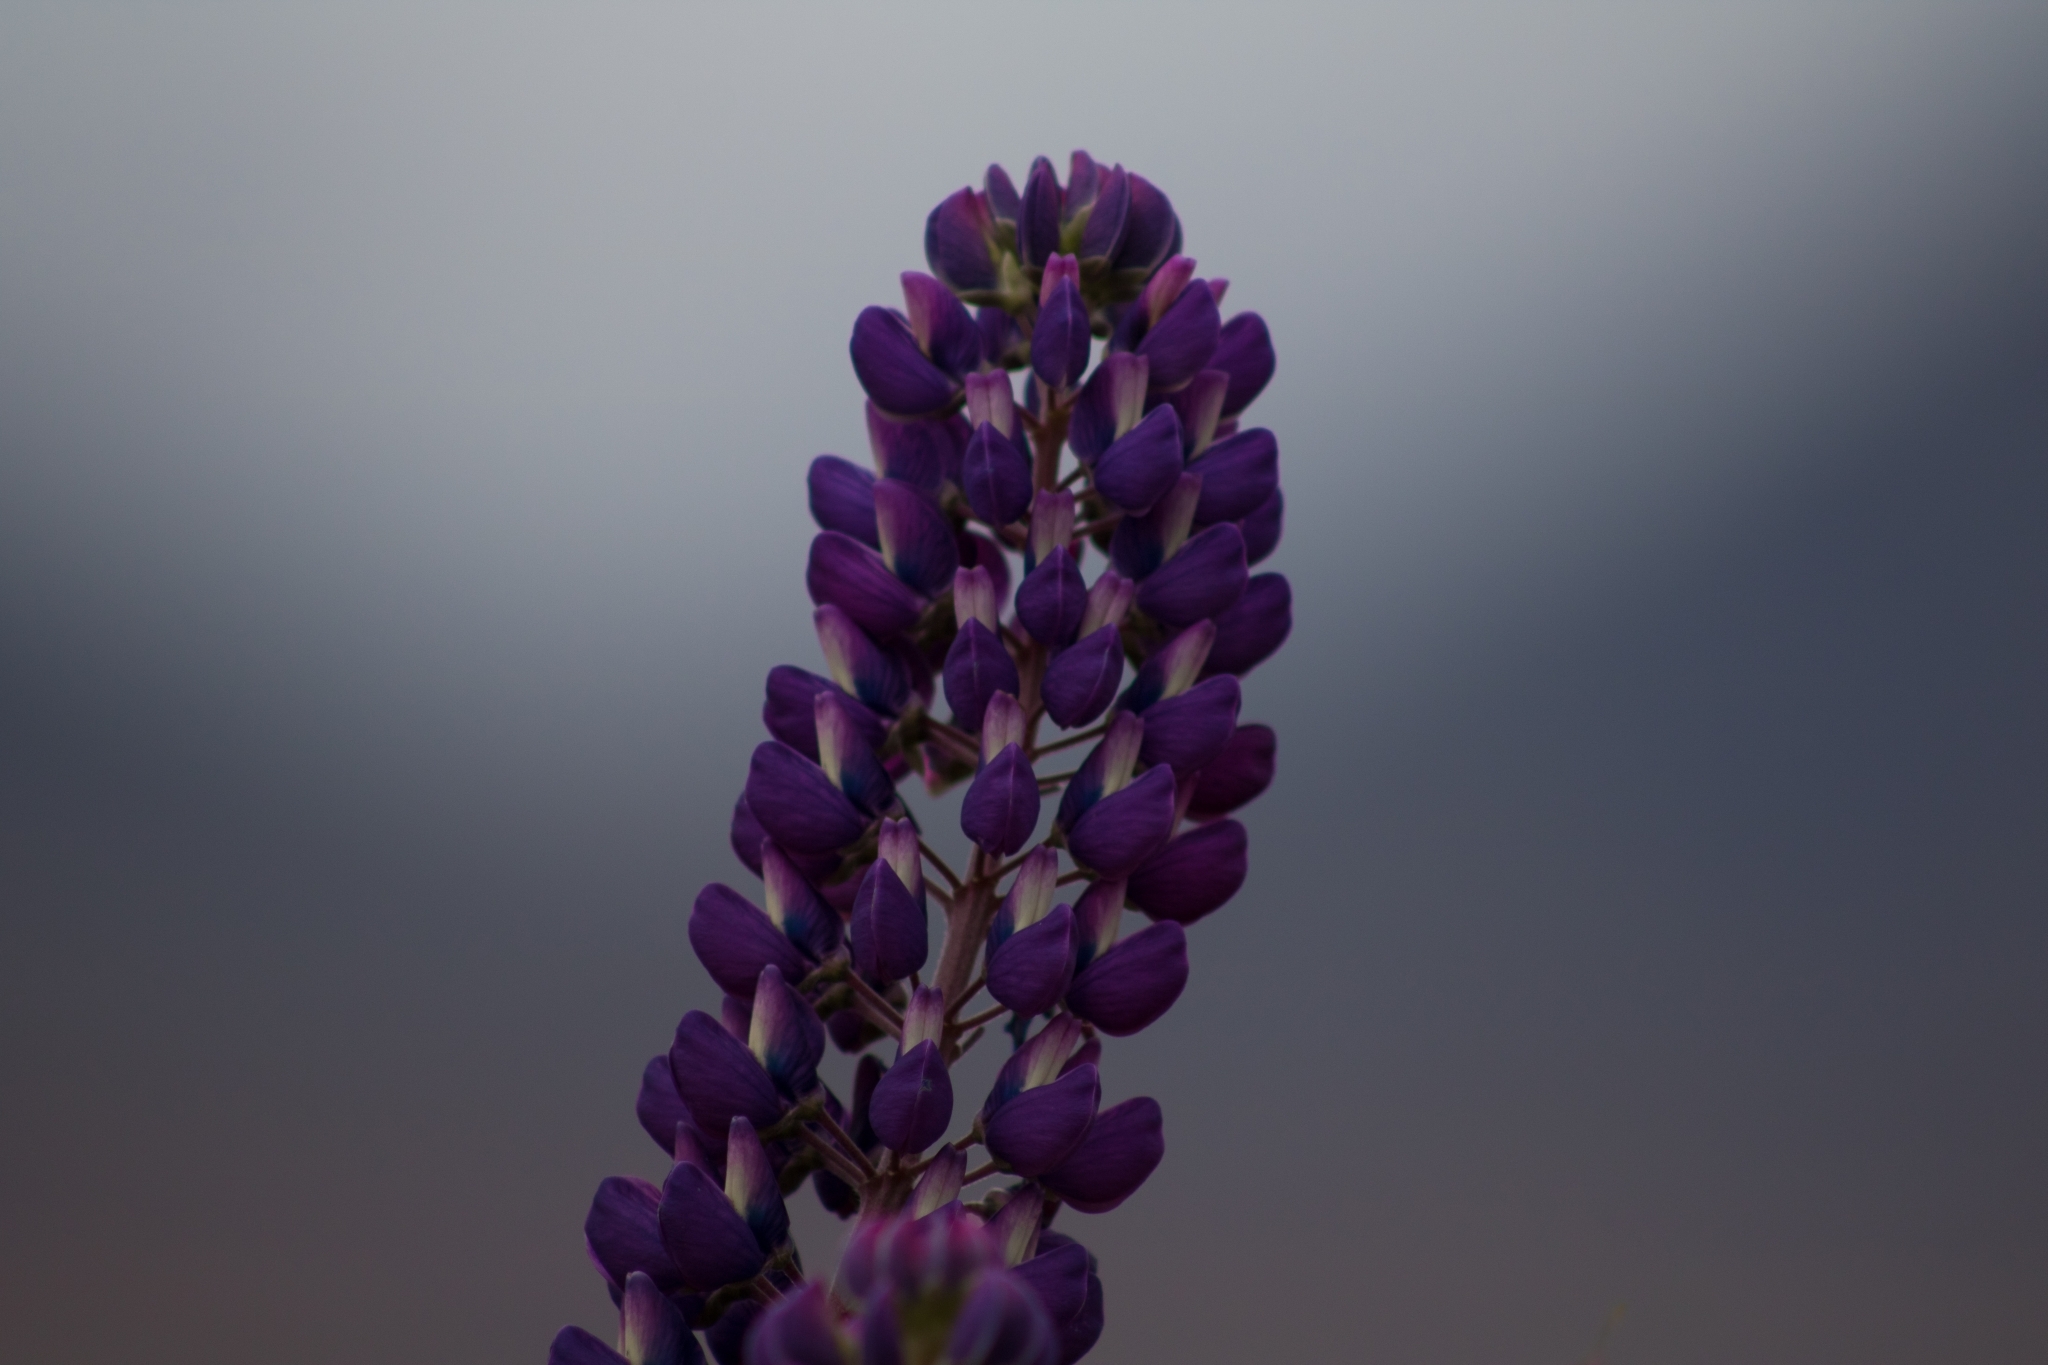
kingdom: Plantae
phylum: Tracheophyta
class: Magnoliopsida
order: Fabales
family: Fabaceae
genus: Lupinus
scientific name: Lupinus polyphyllus
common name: Garden lupin
